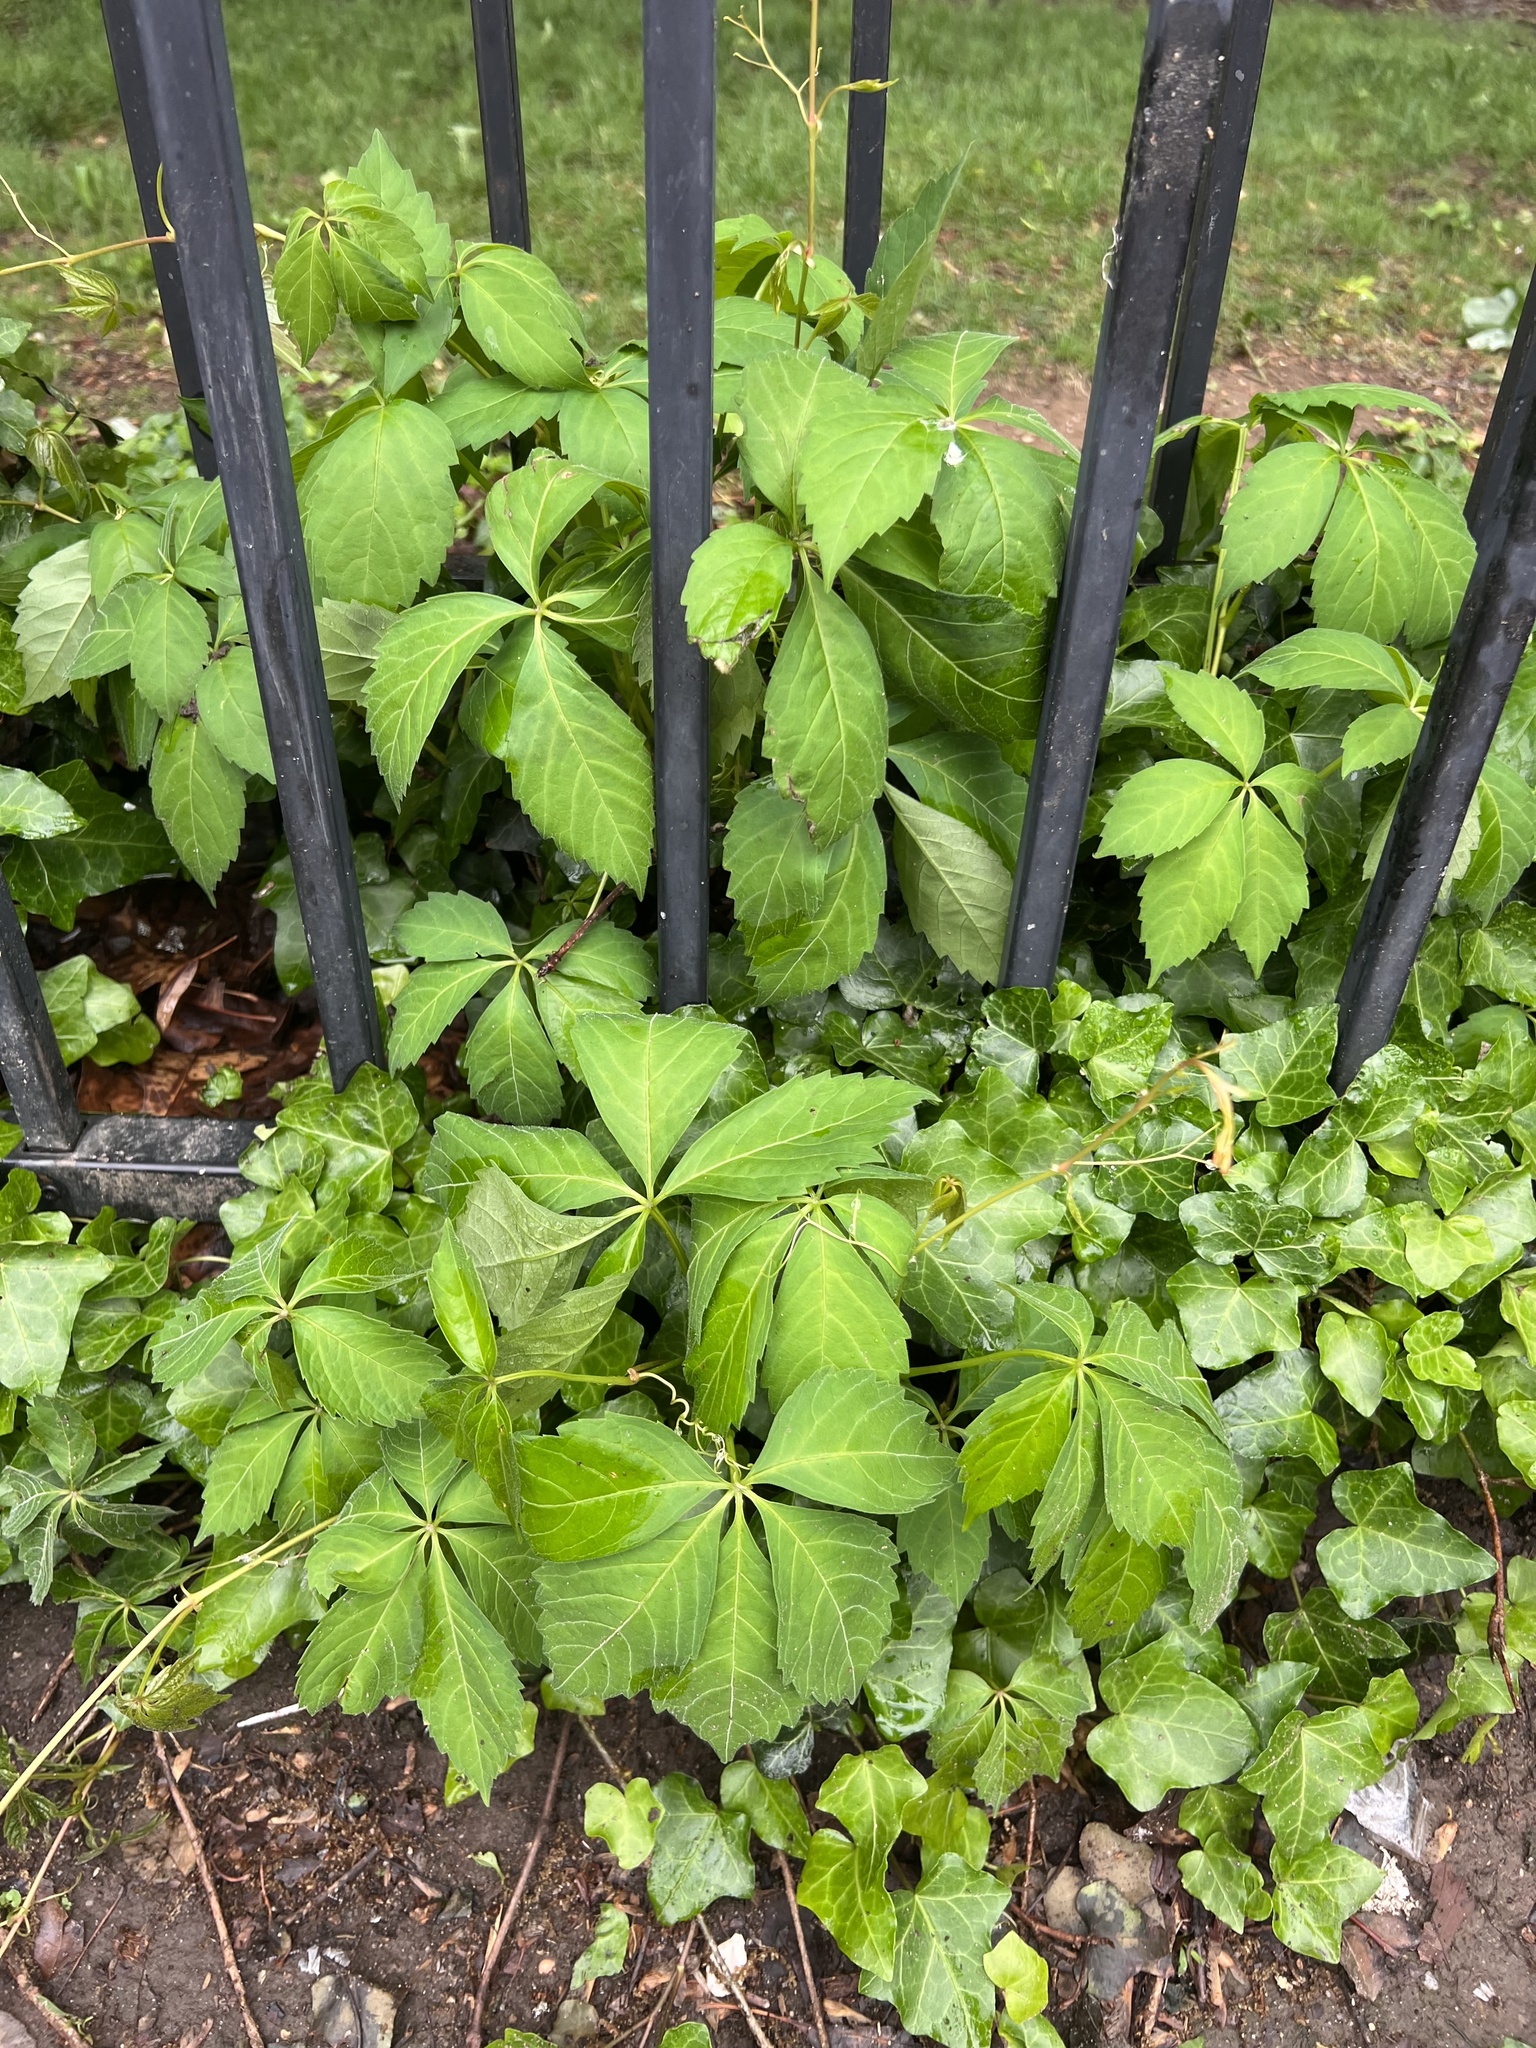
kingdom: Plantae
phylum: Tracheophyta
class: Magnoliopsida
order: Vitales
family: Vitaceae
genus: Parthenocissus
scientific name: Parthenocissus quinquefolia
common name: Virginia-creeper
